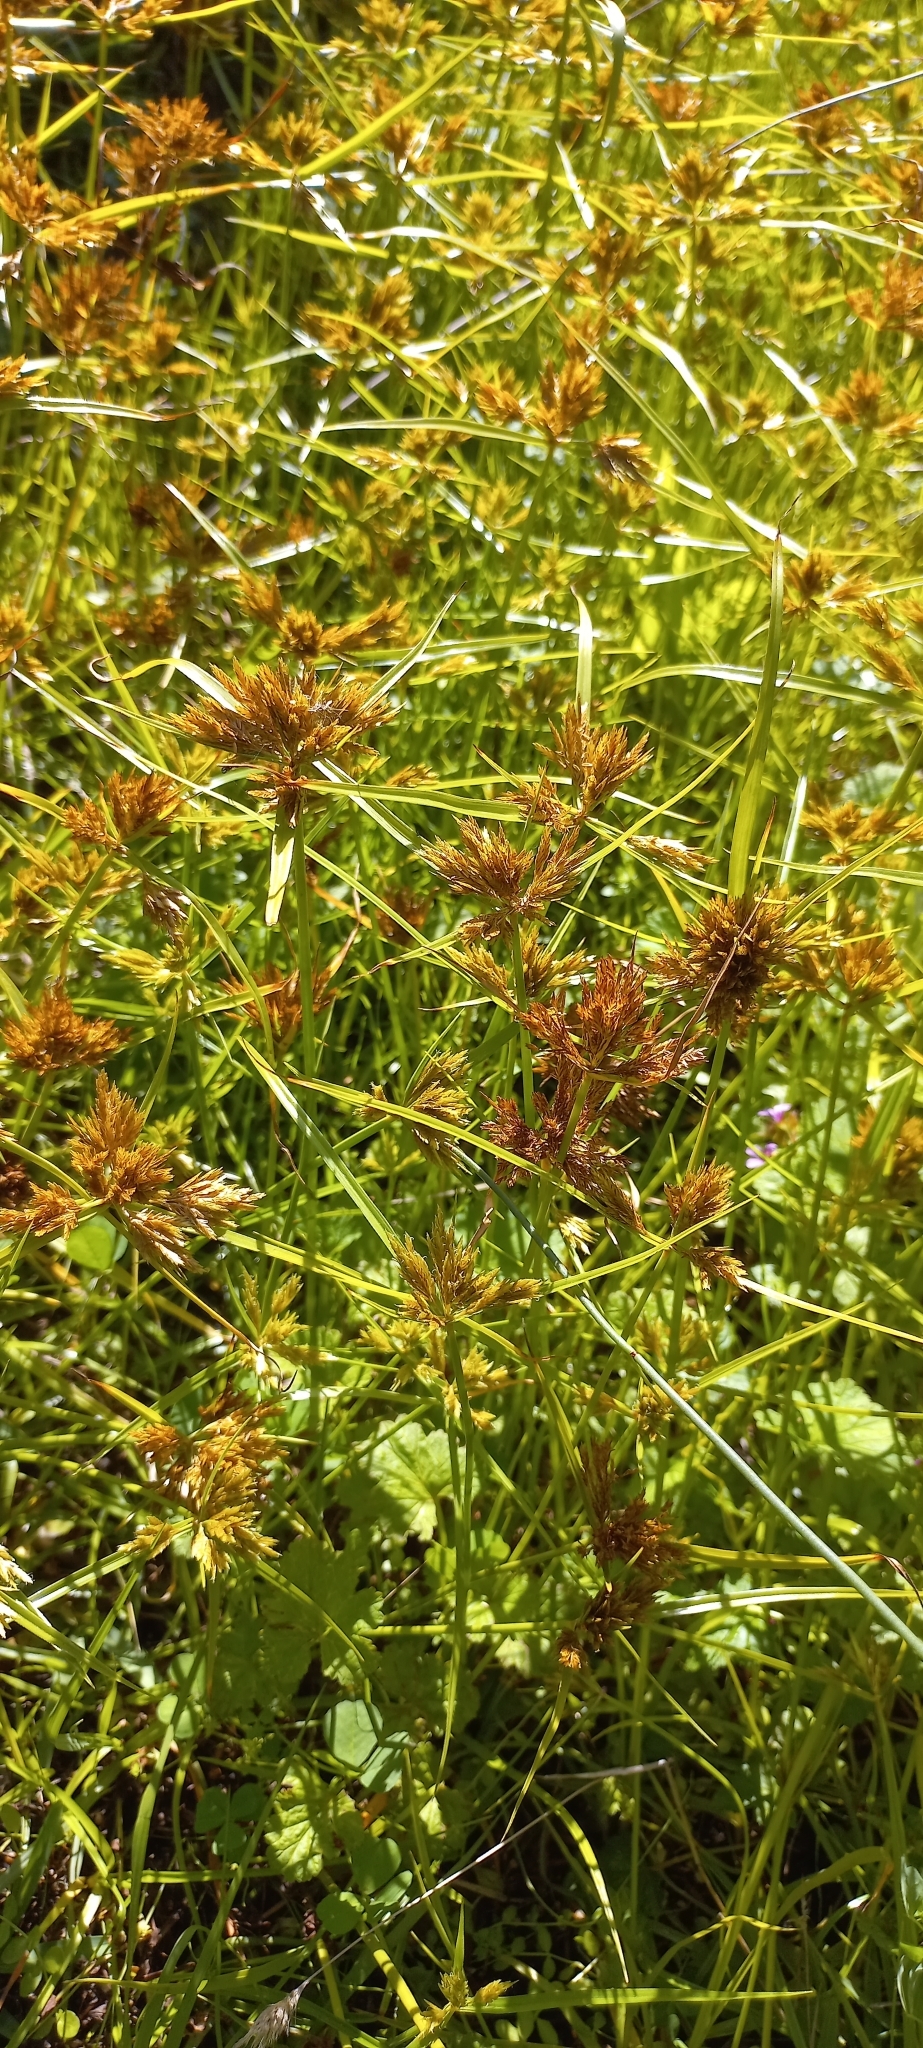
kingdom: Plantae
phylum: Tracheophyta
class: Liliopsida
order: Poales
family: Cyperaceae
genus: Cyperus
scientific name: Cyperus polystachyos
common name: Bunchy flat sedge
